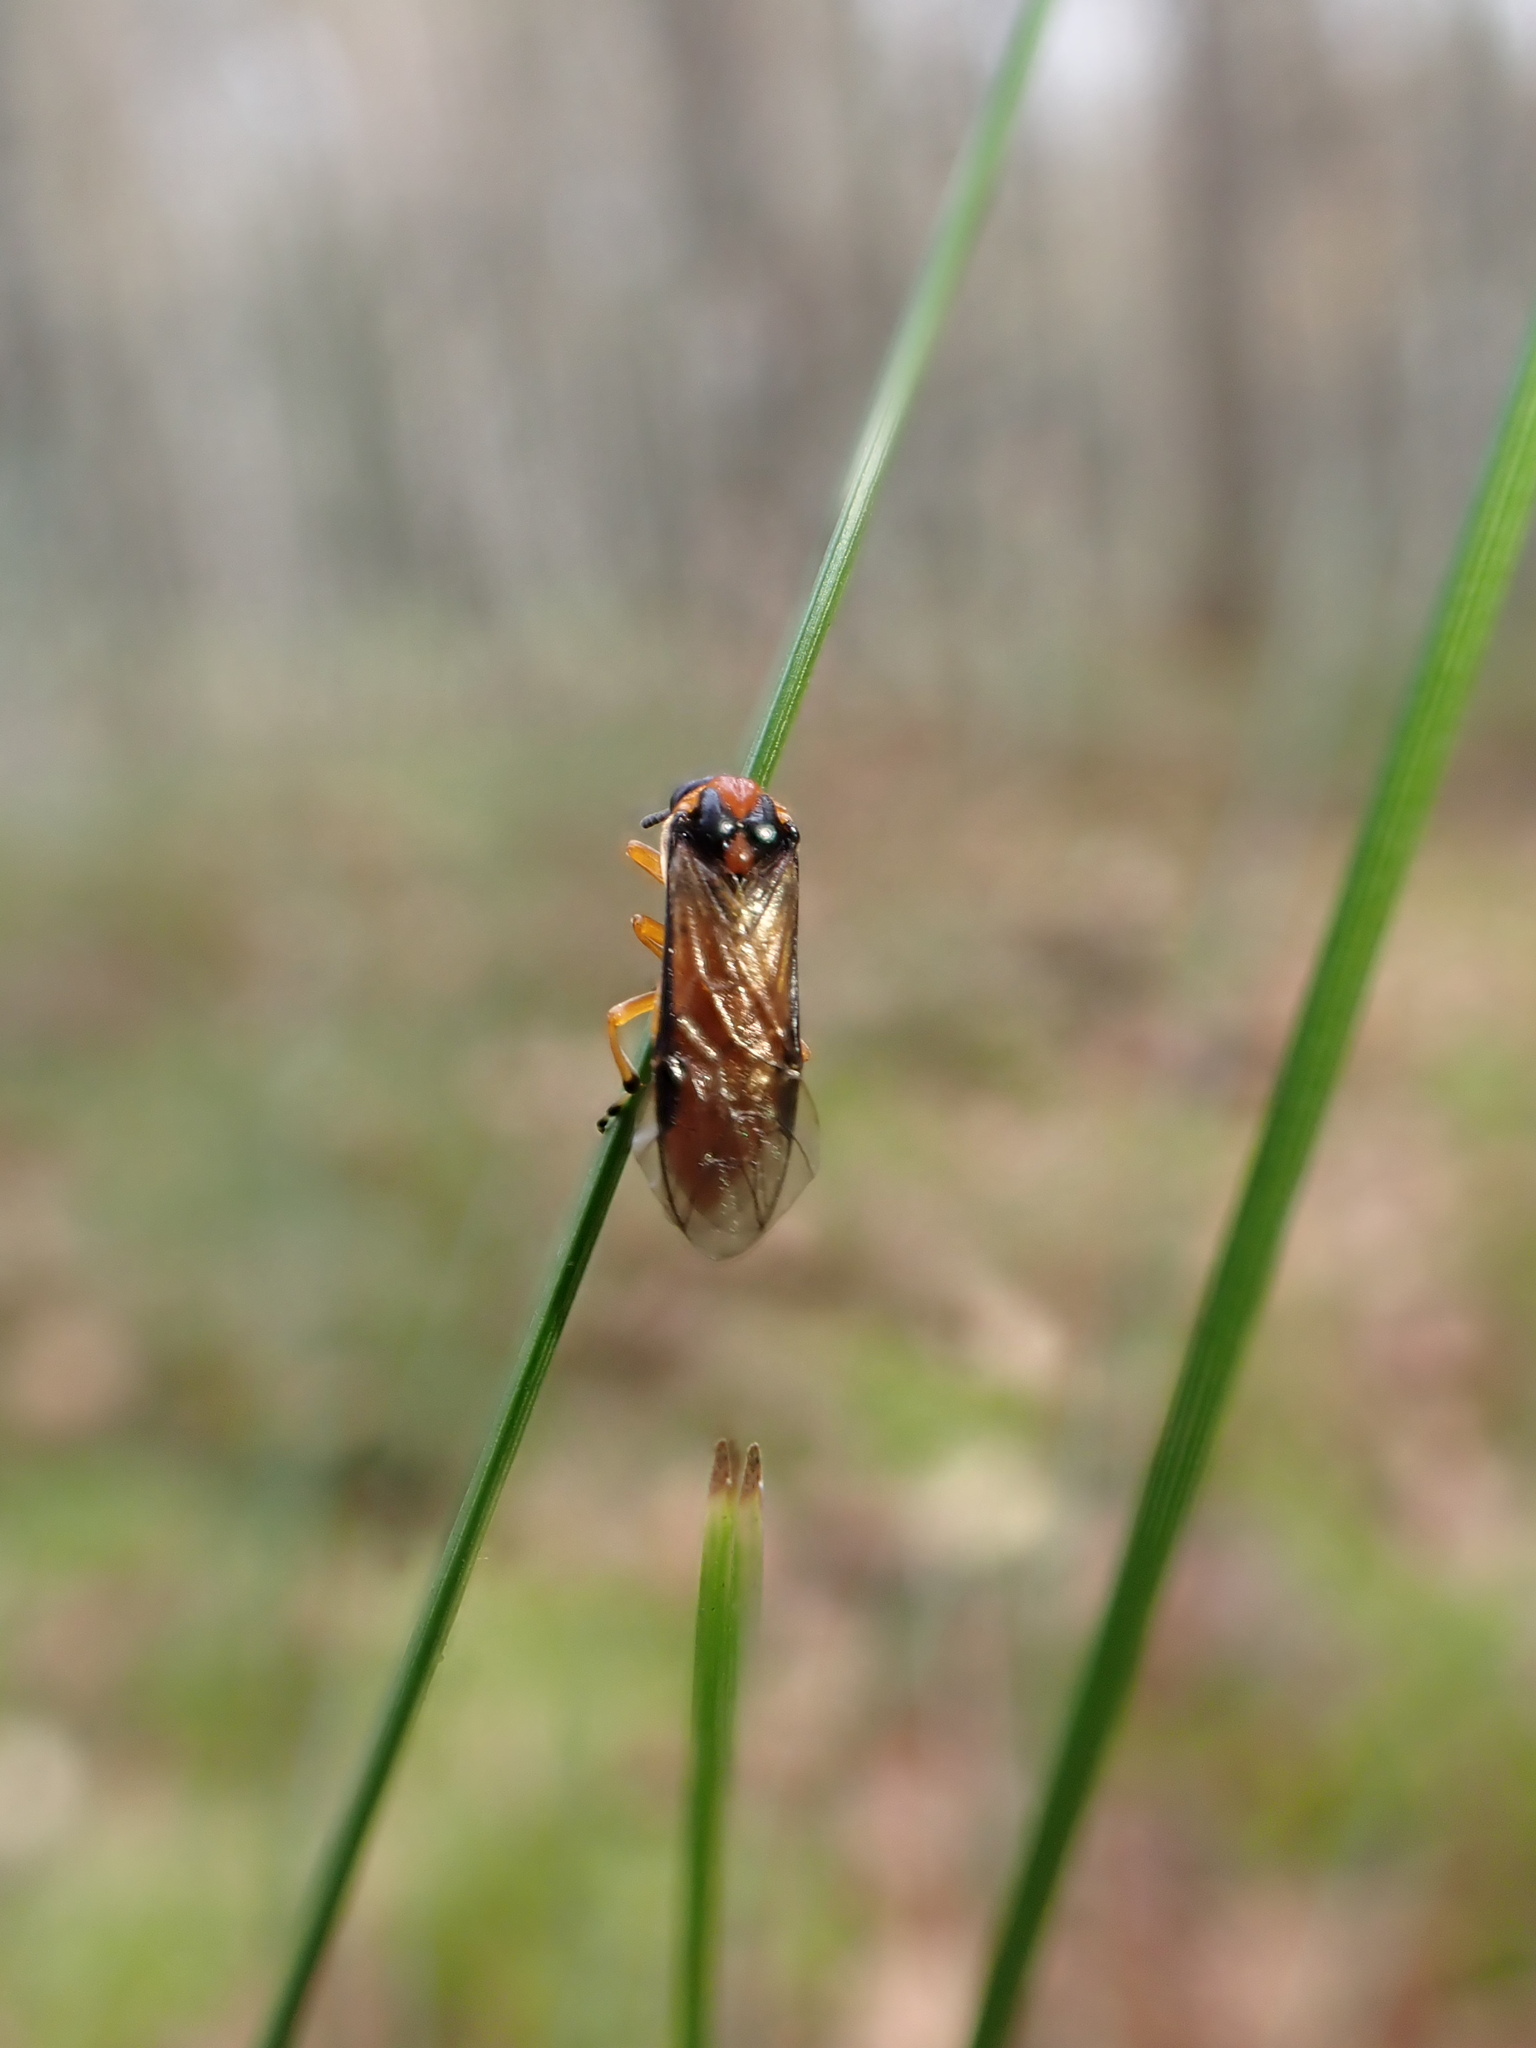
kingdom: Animalia
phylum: Arthropoda
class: Insecta
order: Hymenoptera
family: Tenthredinidae
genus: Athalia
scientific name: Athalia rosae
